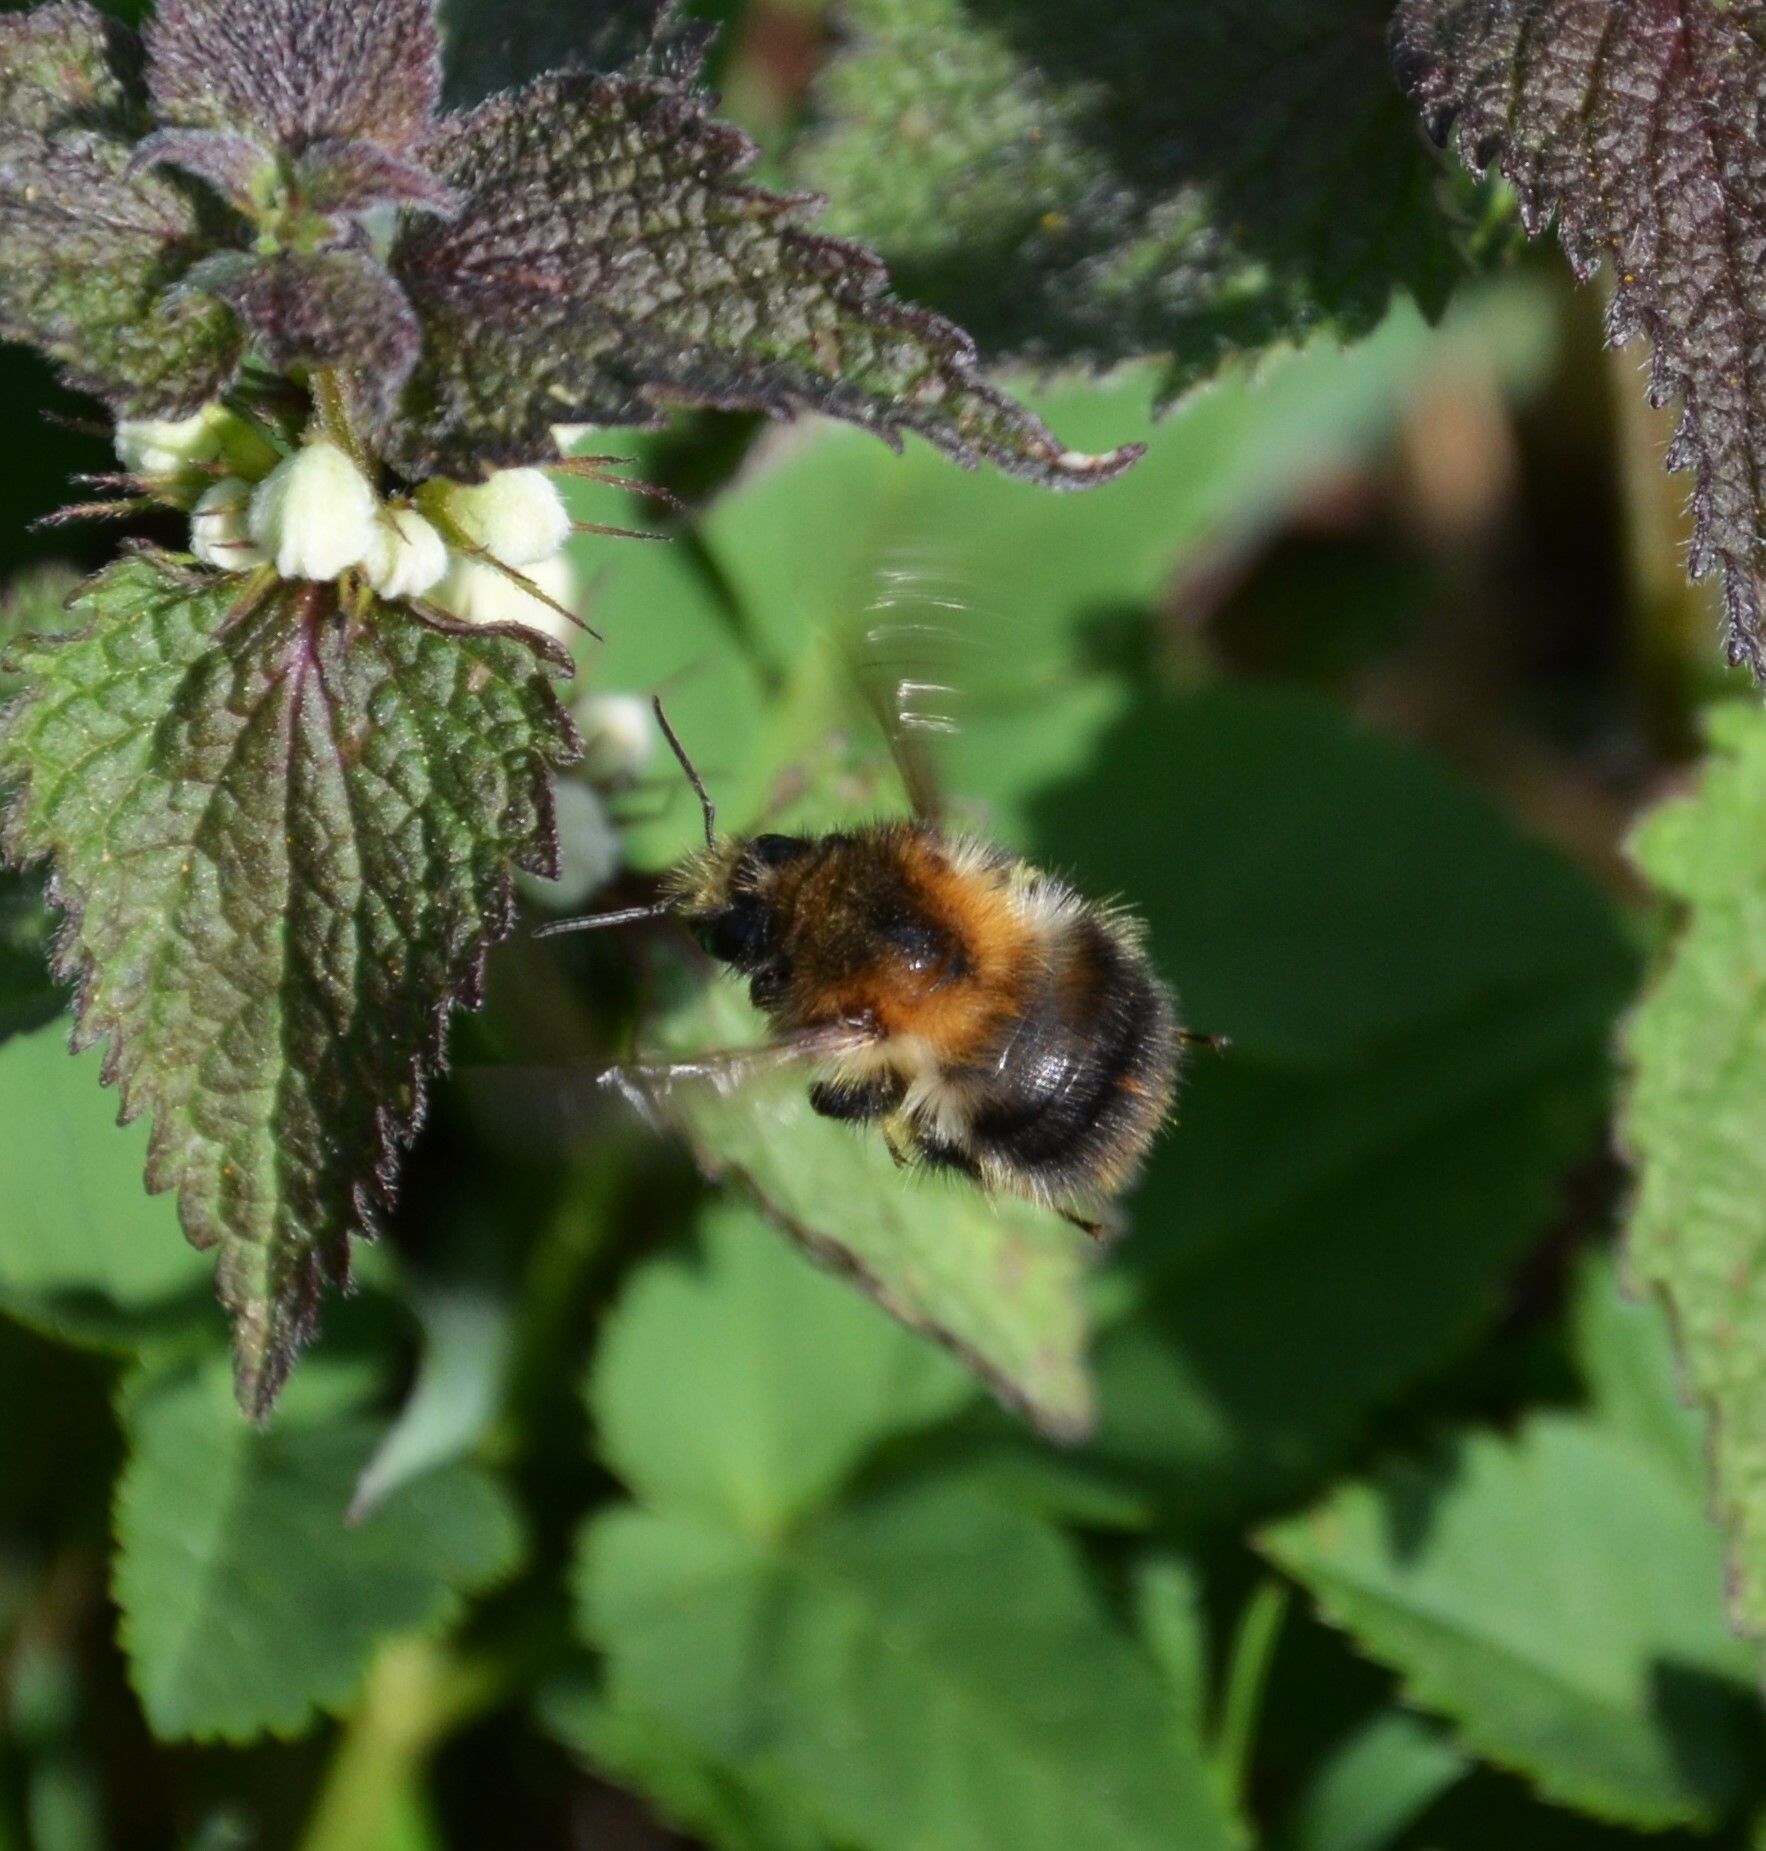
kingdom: Animalia
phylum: Arthropoda
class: Insecta
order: Hymenoptera
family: Apidae
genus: Bombus
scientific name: Bombus pascuorum
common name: Common carder bee
